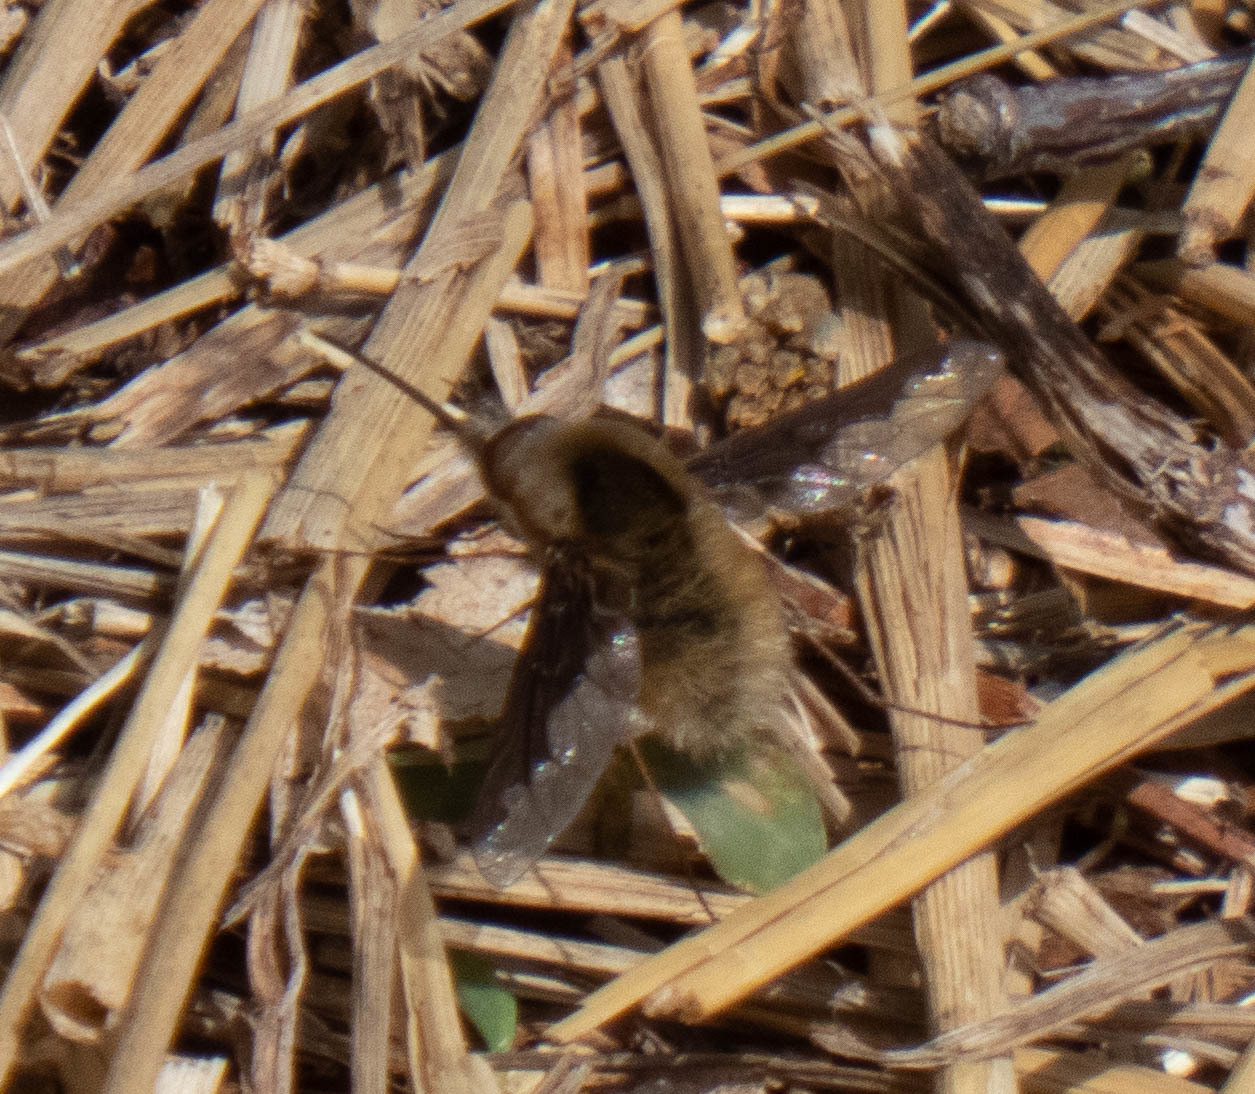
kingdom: Animalia
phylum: Arthropoda
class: Insecta
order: Diptera
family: Bombyliidae
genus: Bombylius
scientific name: Bombylius major
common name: Bee fly
